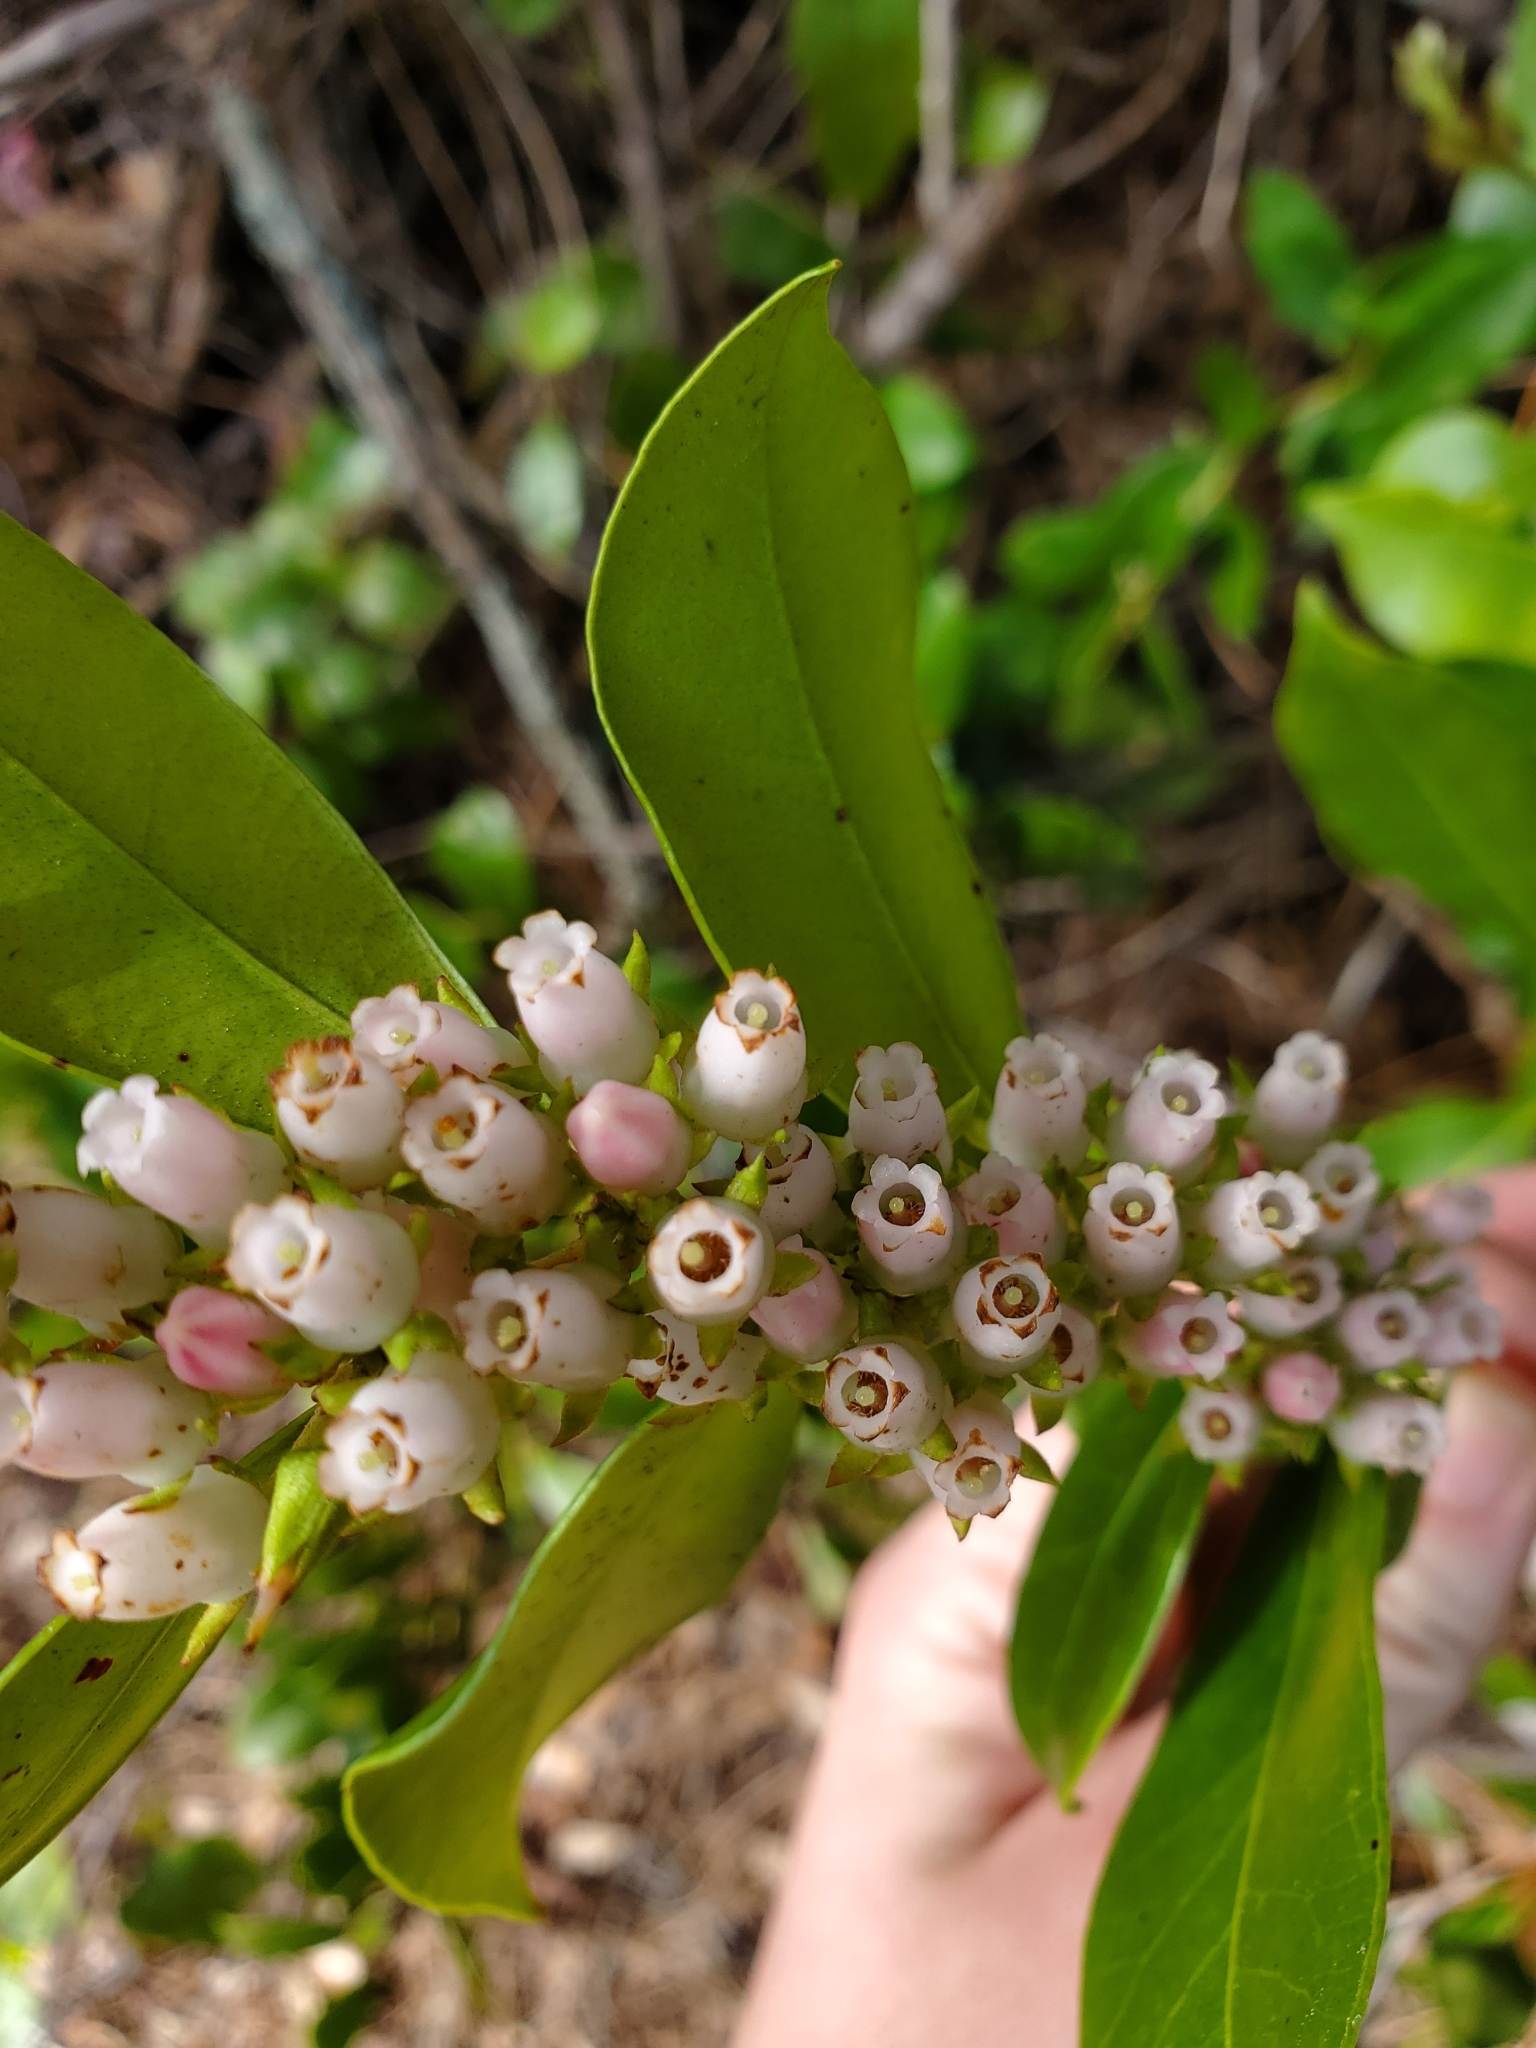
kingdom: Plantae
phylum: Tracheophyta
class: Magnoliopsida
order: Ericales
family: Ericaceae
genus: Lyonia
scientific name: Lyonia lucida
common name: Fetterbush
